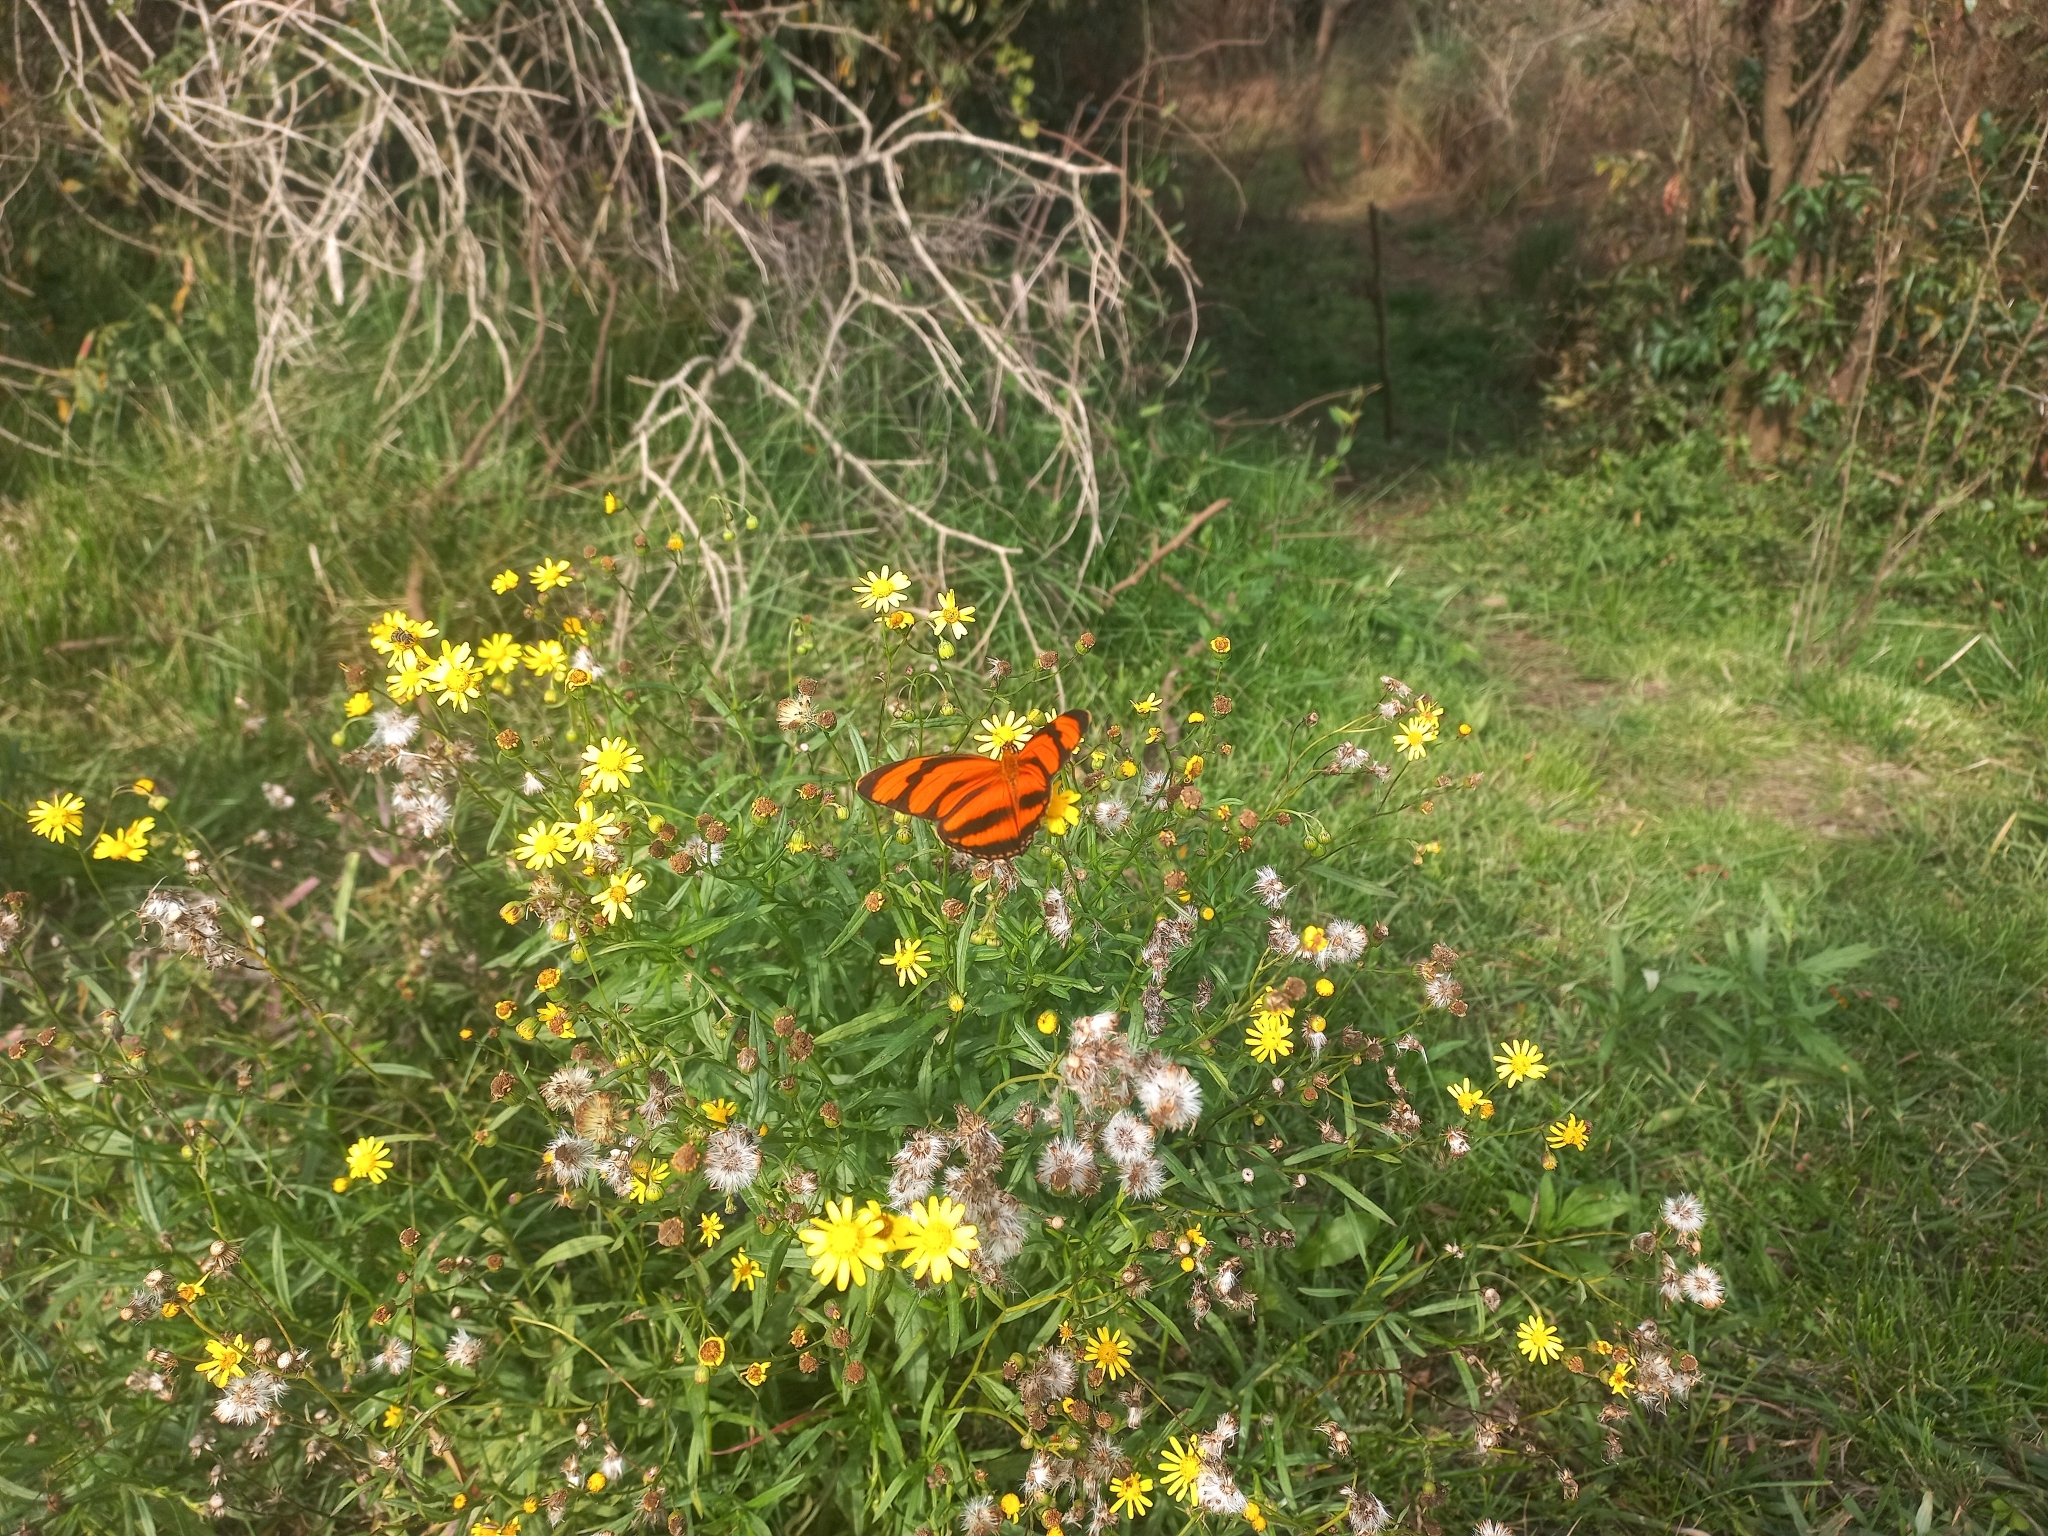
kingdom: Animalia
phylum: Arthropoda
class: Insecta
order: Lepidoptera
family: Nymphalidae
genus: Dryadula
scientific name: Dryadula phaetusa
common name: Banded orange heliconian
